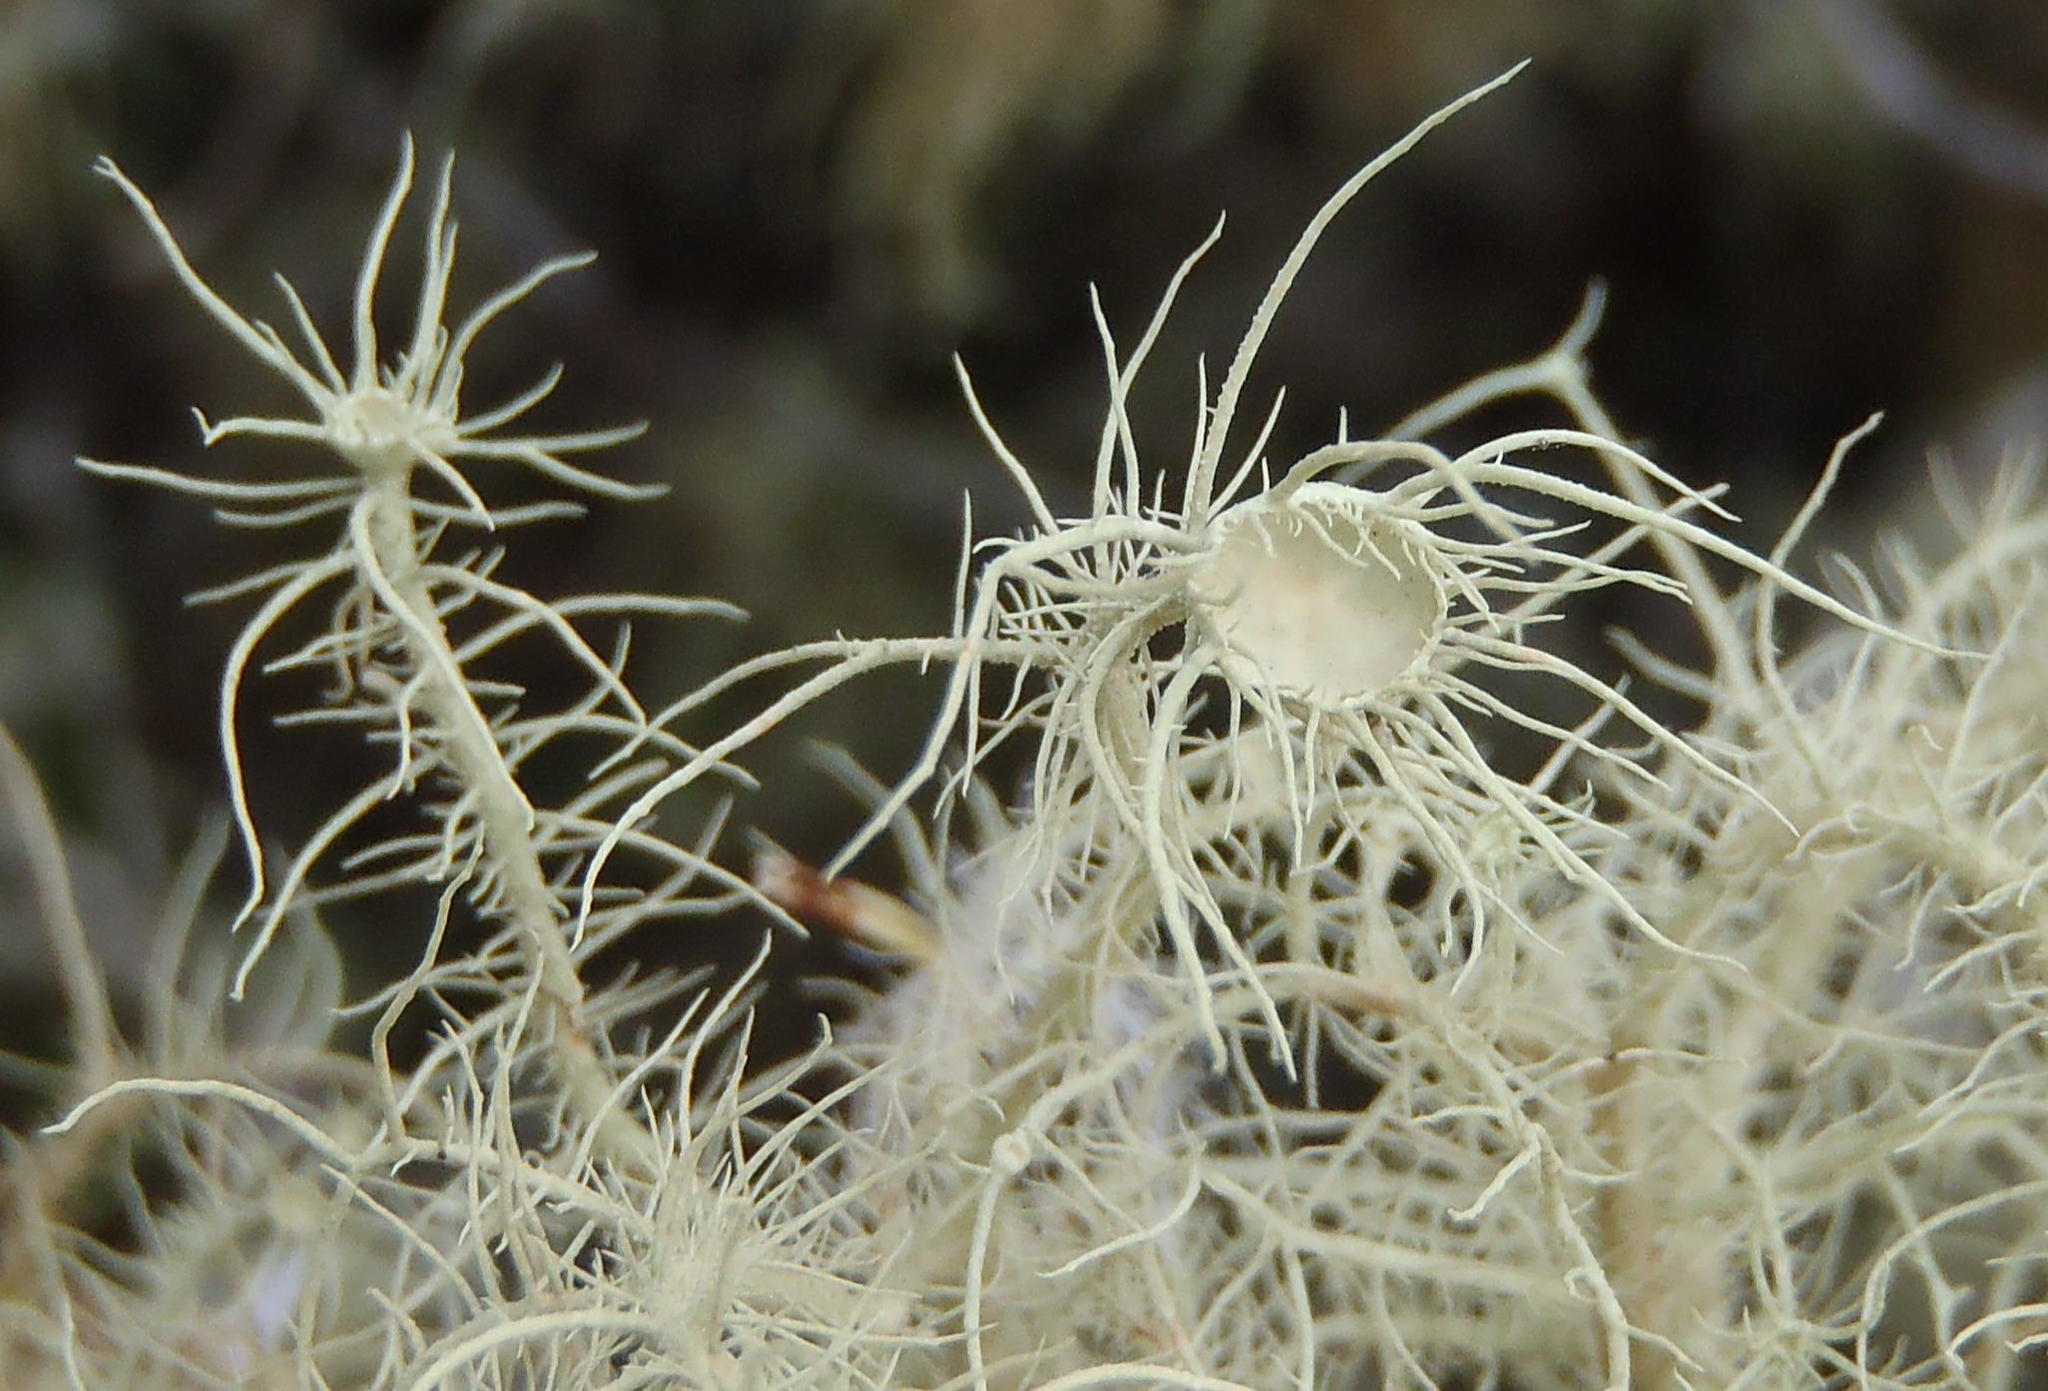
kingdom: Fungi
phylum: Ascomycota
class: Lecanoromycetes
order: Lecanorales
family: Parmeliaceae
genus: Usnea
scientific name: Usnea florida
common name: Witches' whiskers lichen
